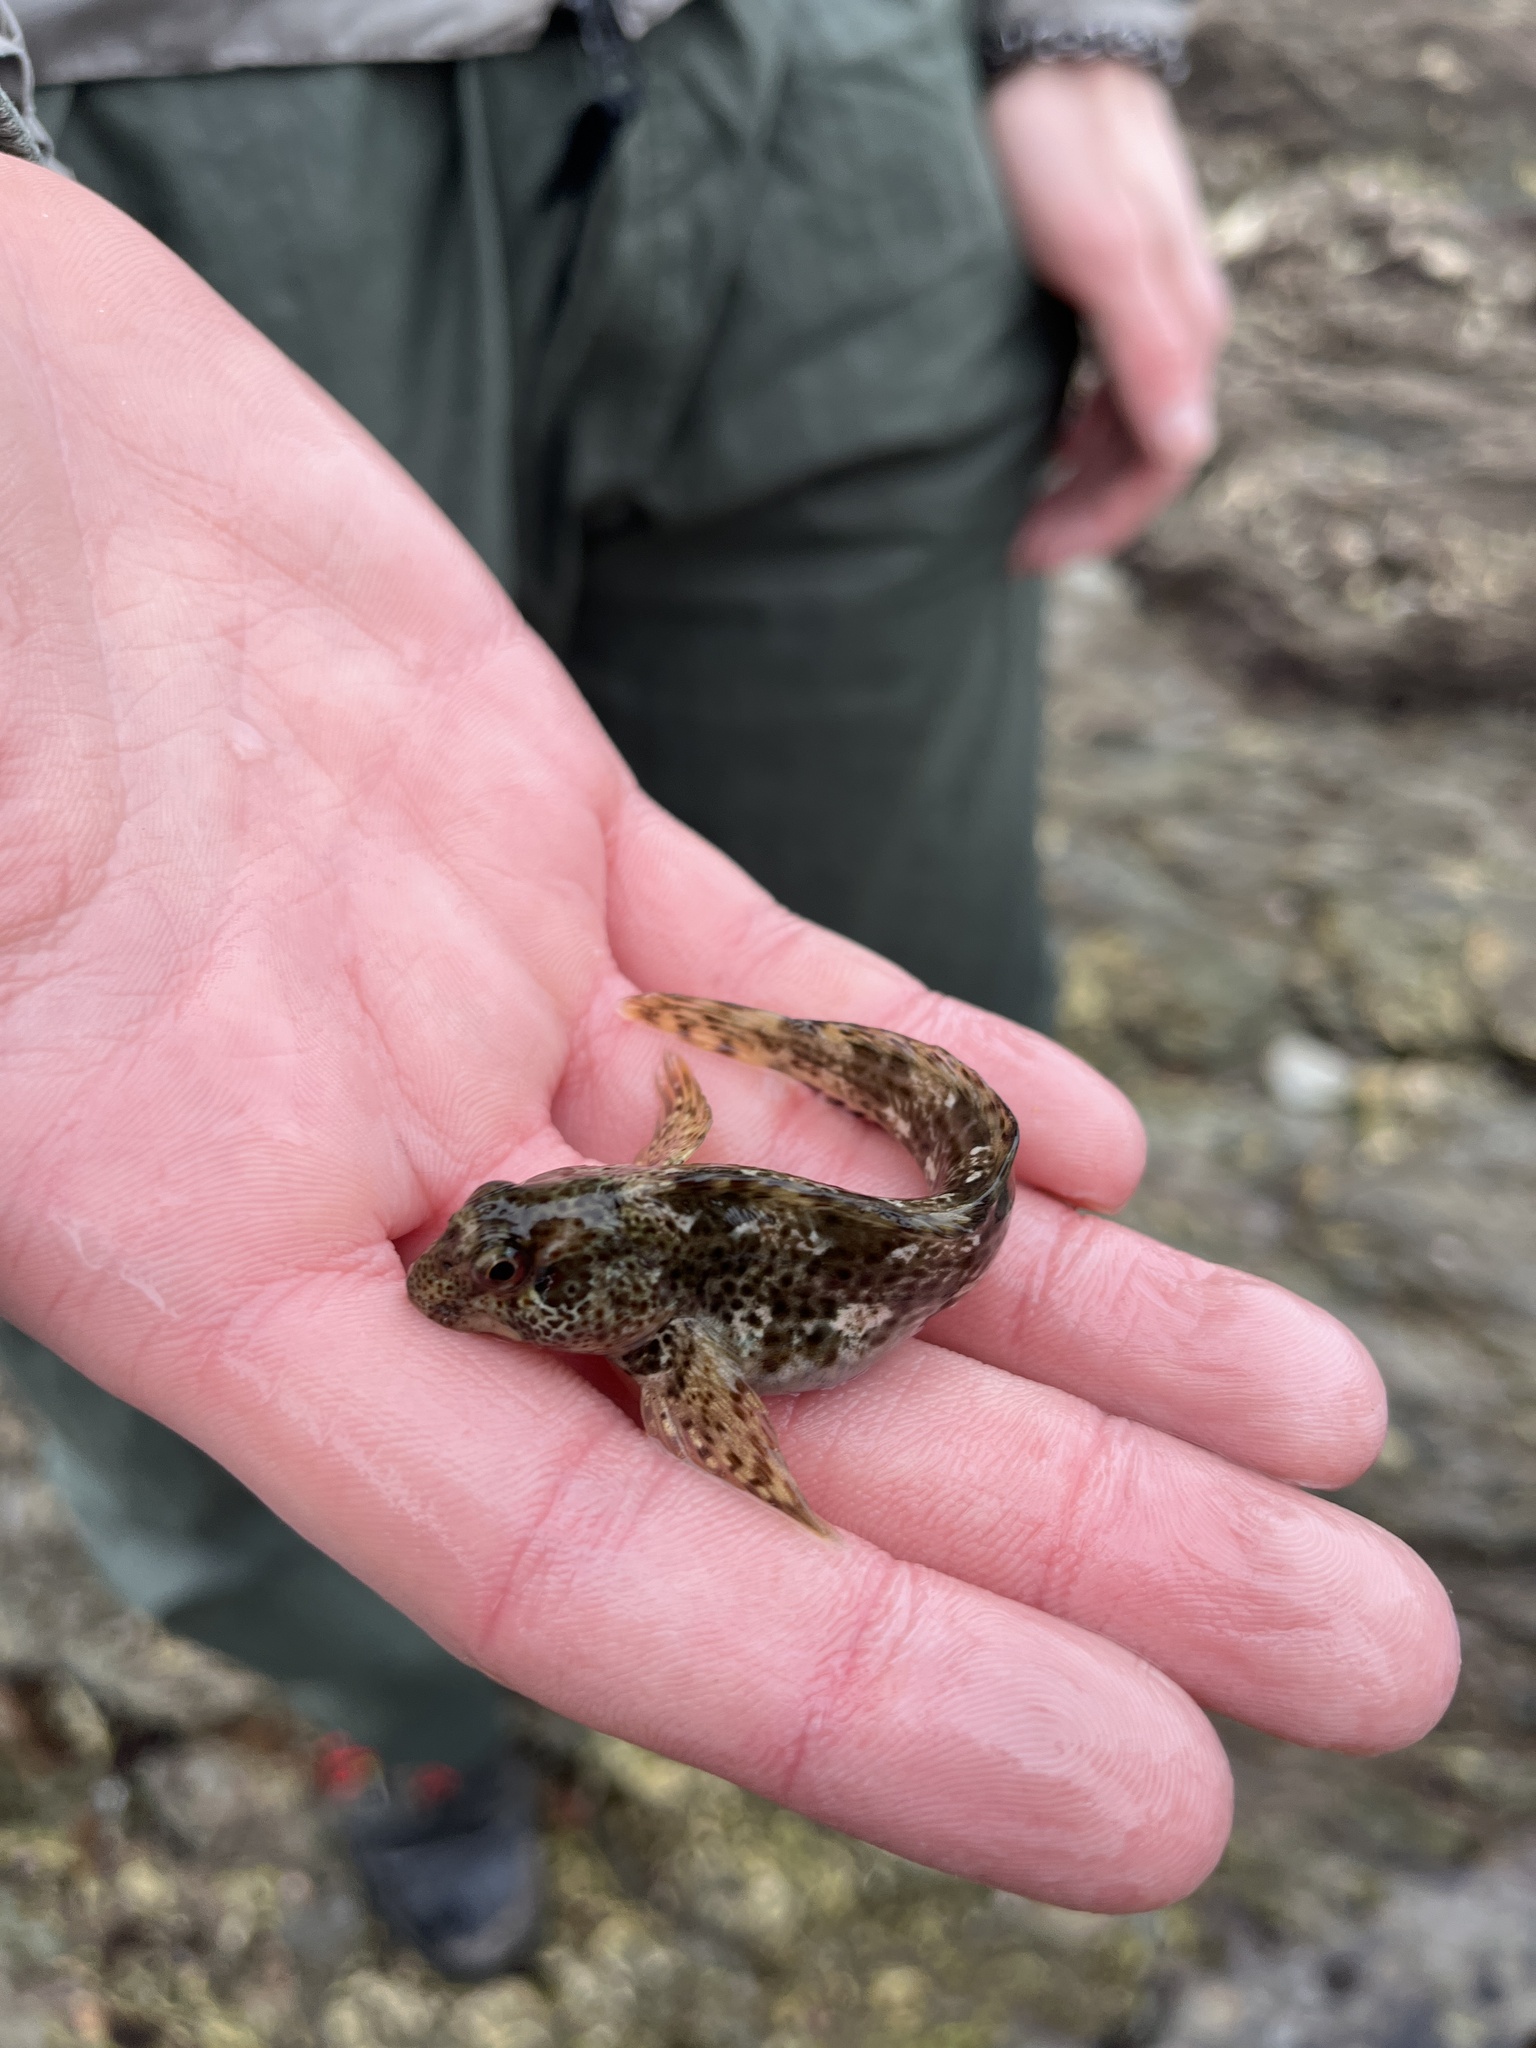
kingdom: Animalia
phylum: Chordata
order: Perciformes
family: Blenniidae
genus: Lipophrys
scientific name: Lipophrys pholis
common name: Shanny
